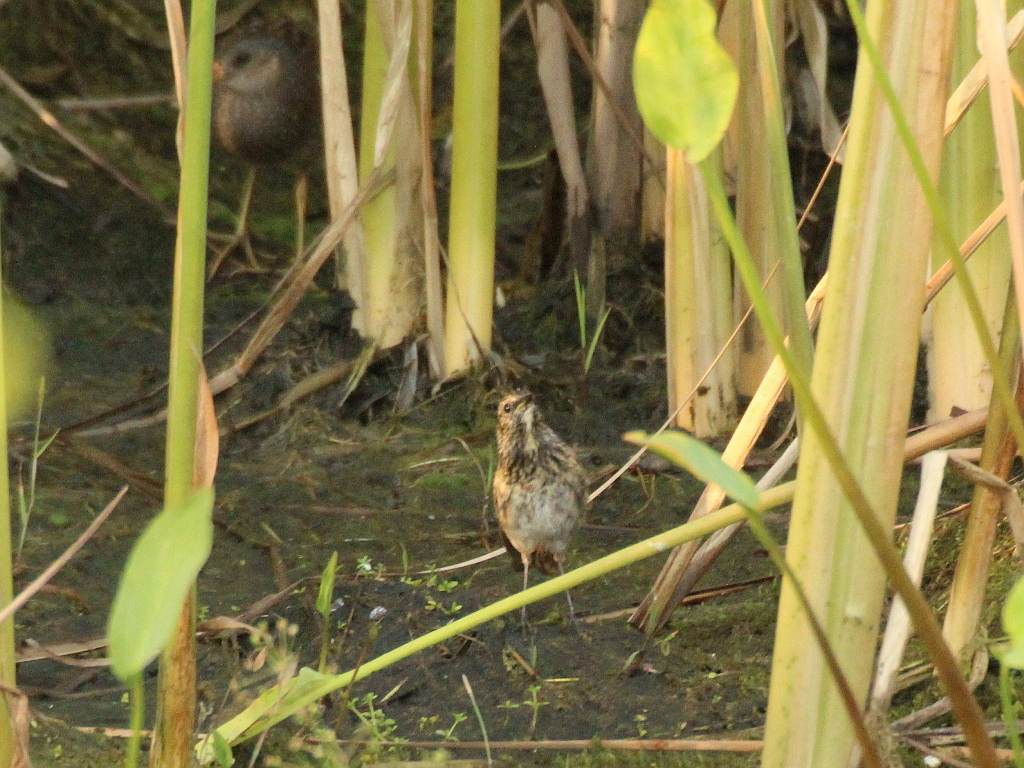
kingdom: Animalia
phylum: Chordata
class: Aves
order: Passeriformes
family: Muscicapidae
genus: Luscinia
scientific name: Luscinia svecica
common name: Bluethroat
